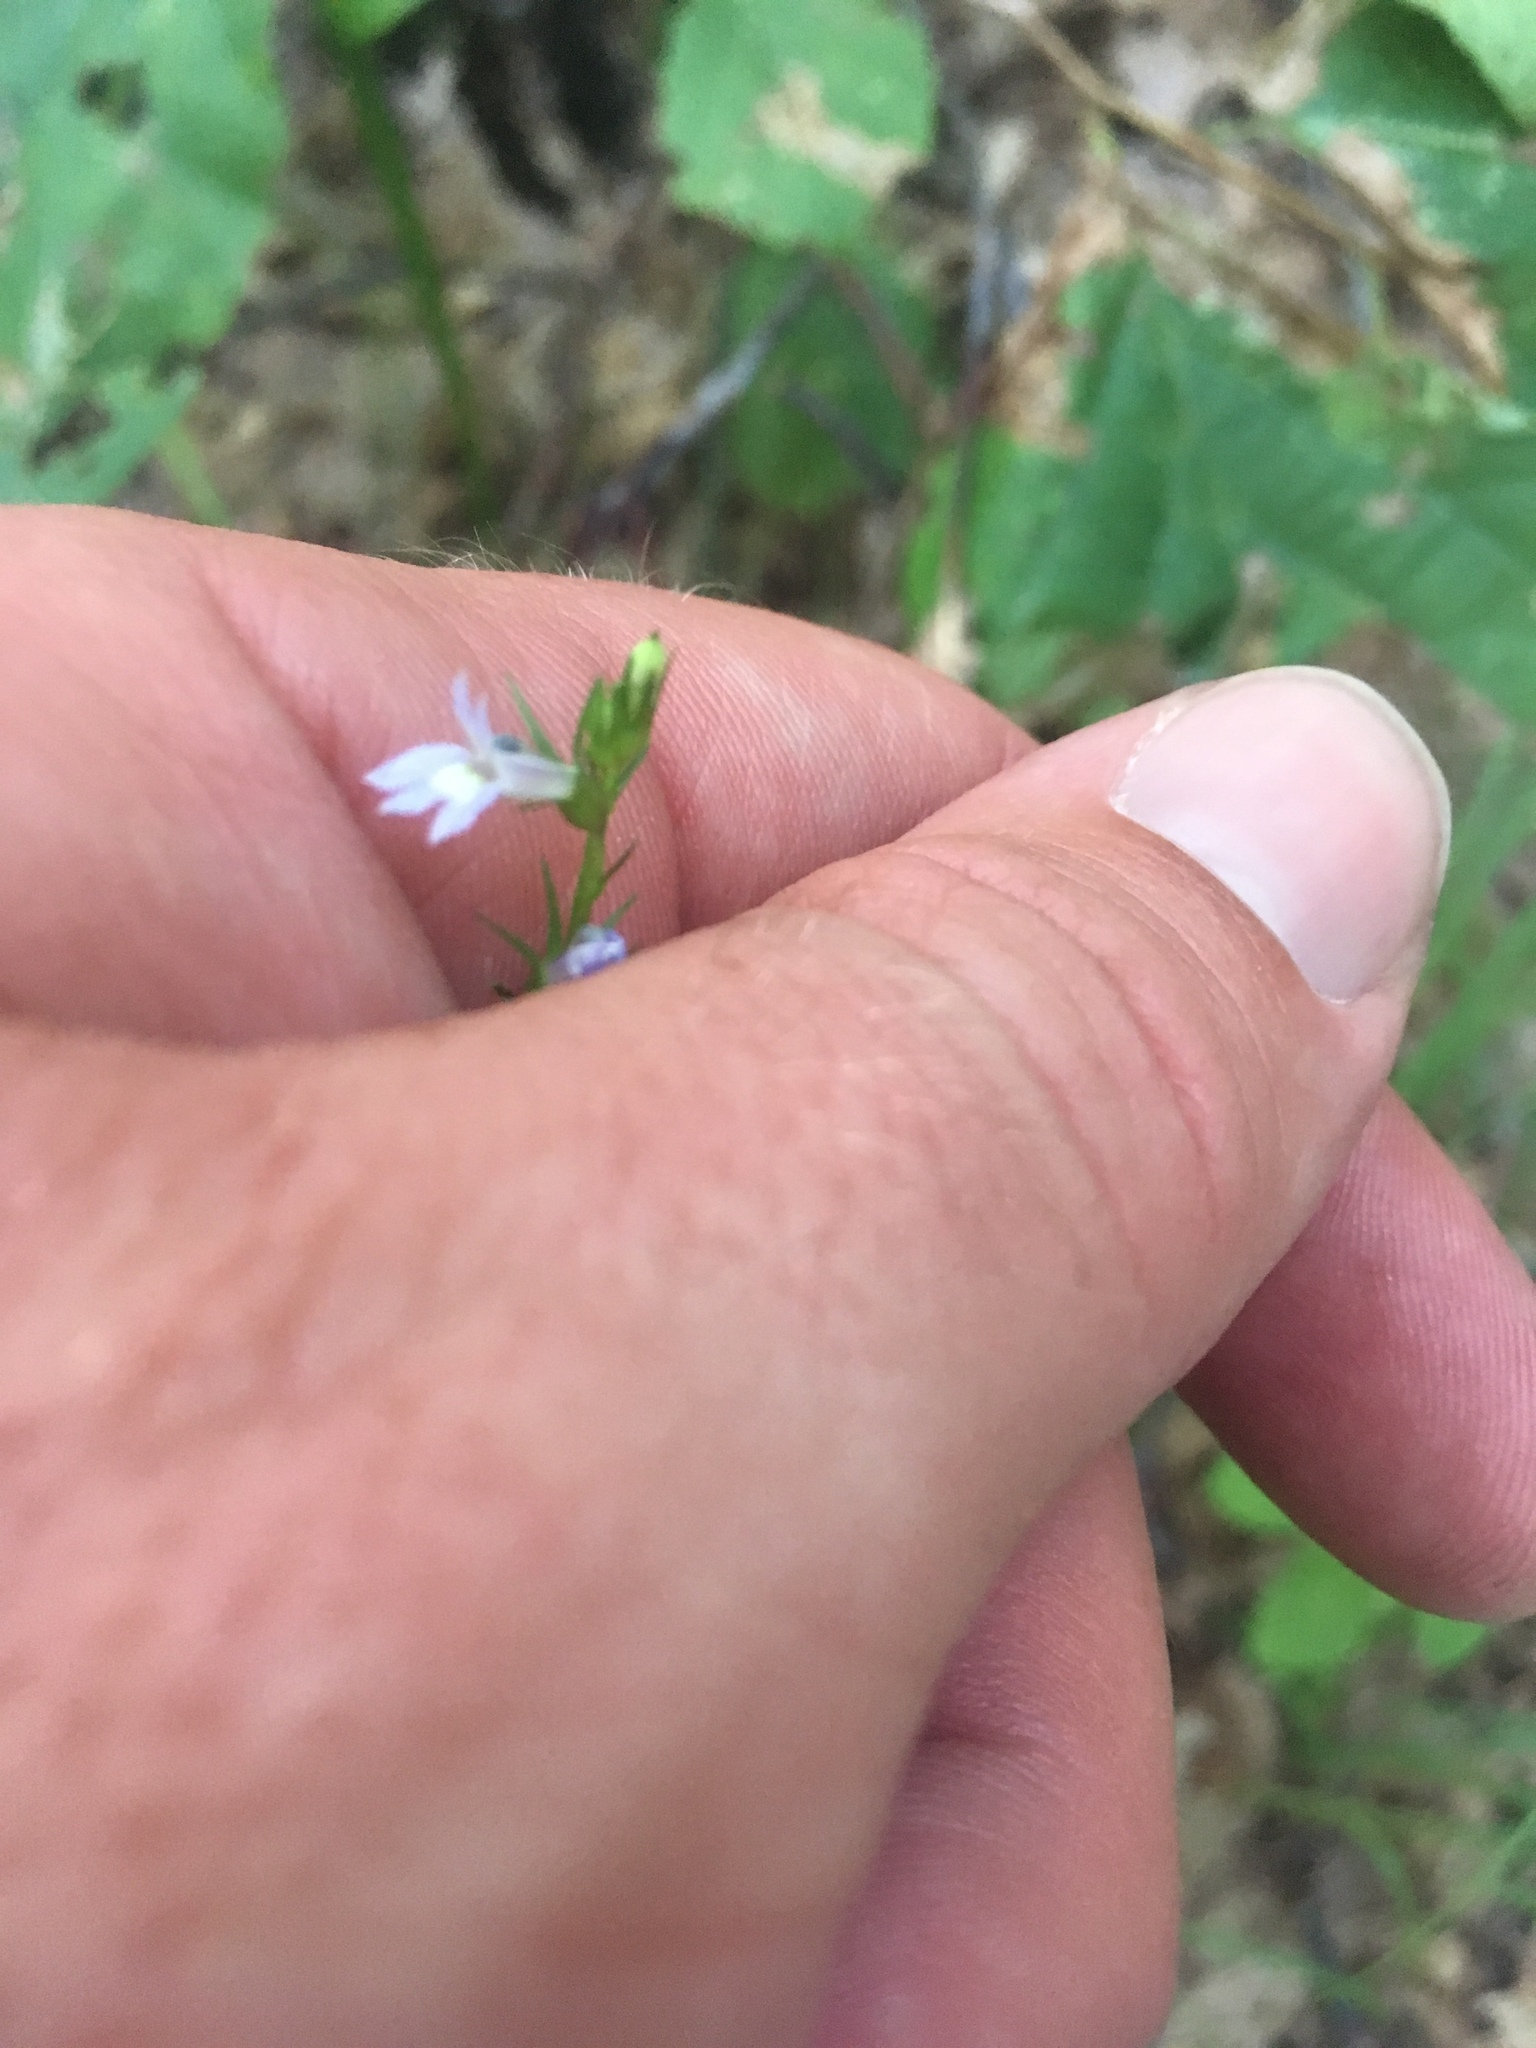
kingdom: Plantae
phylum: Tracheophyta
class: Magnoliopsida
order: Asterales
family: Campanulaceae
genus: Lobelia
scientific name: Lobelia inflata
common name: Indian tobacco
